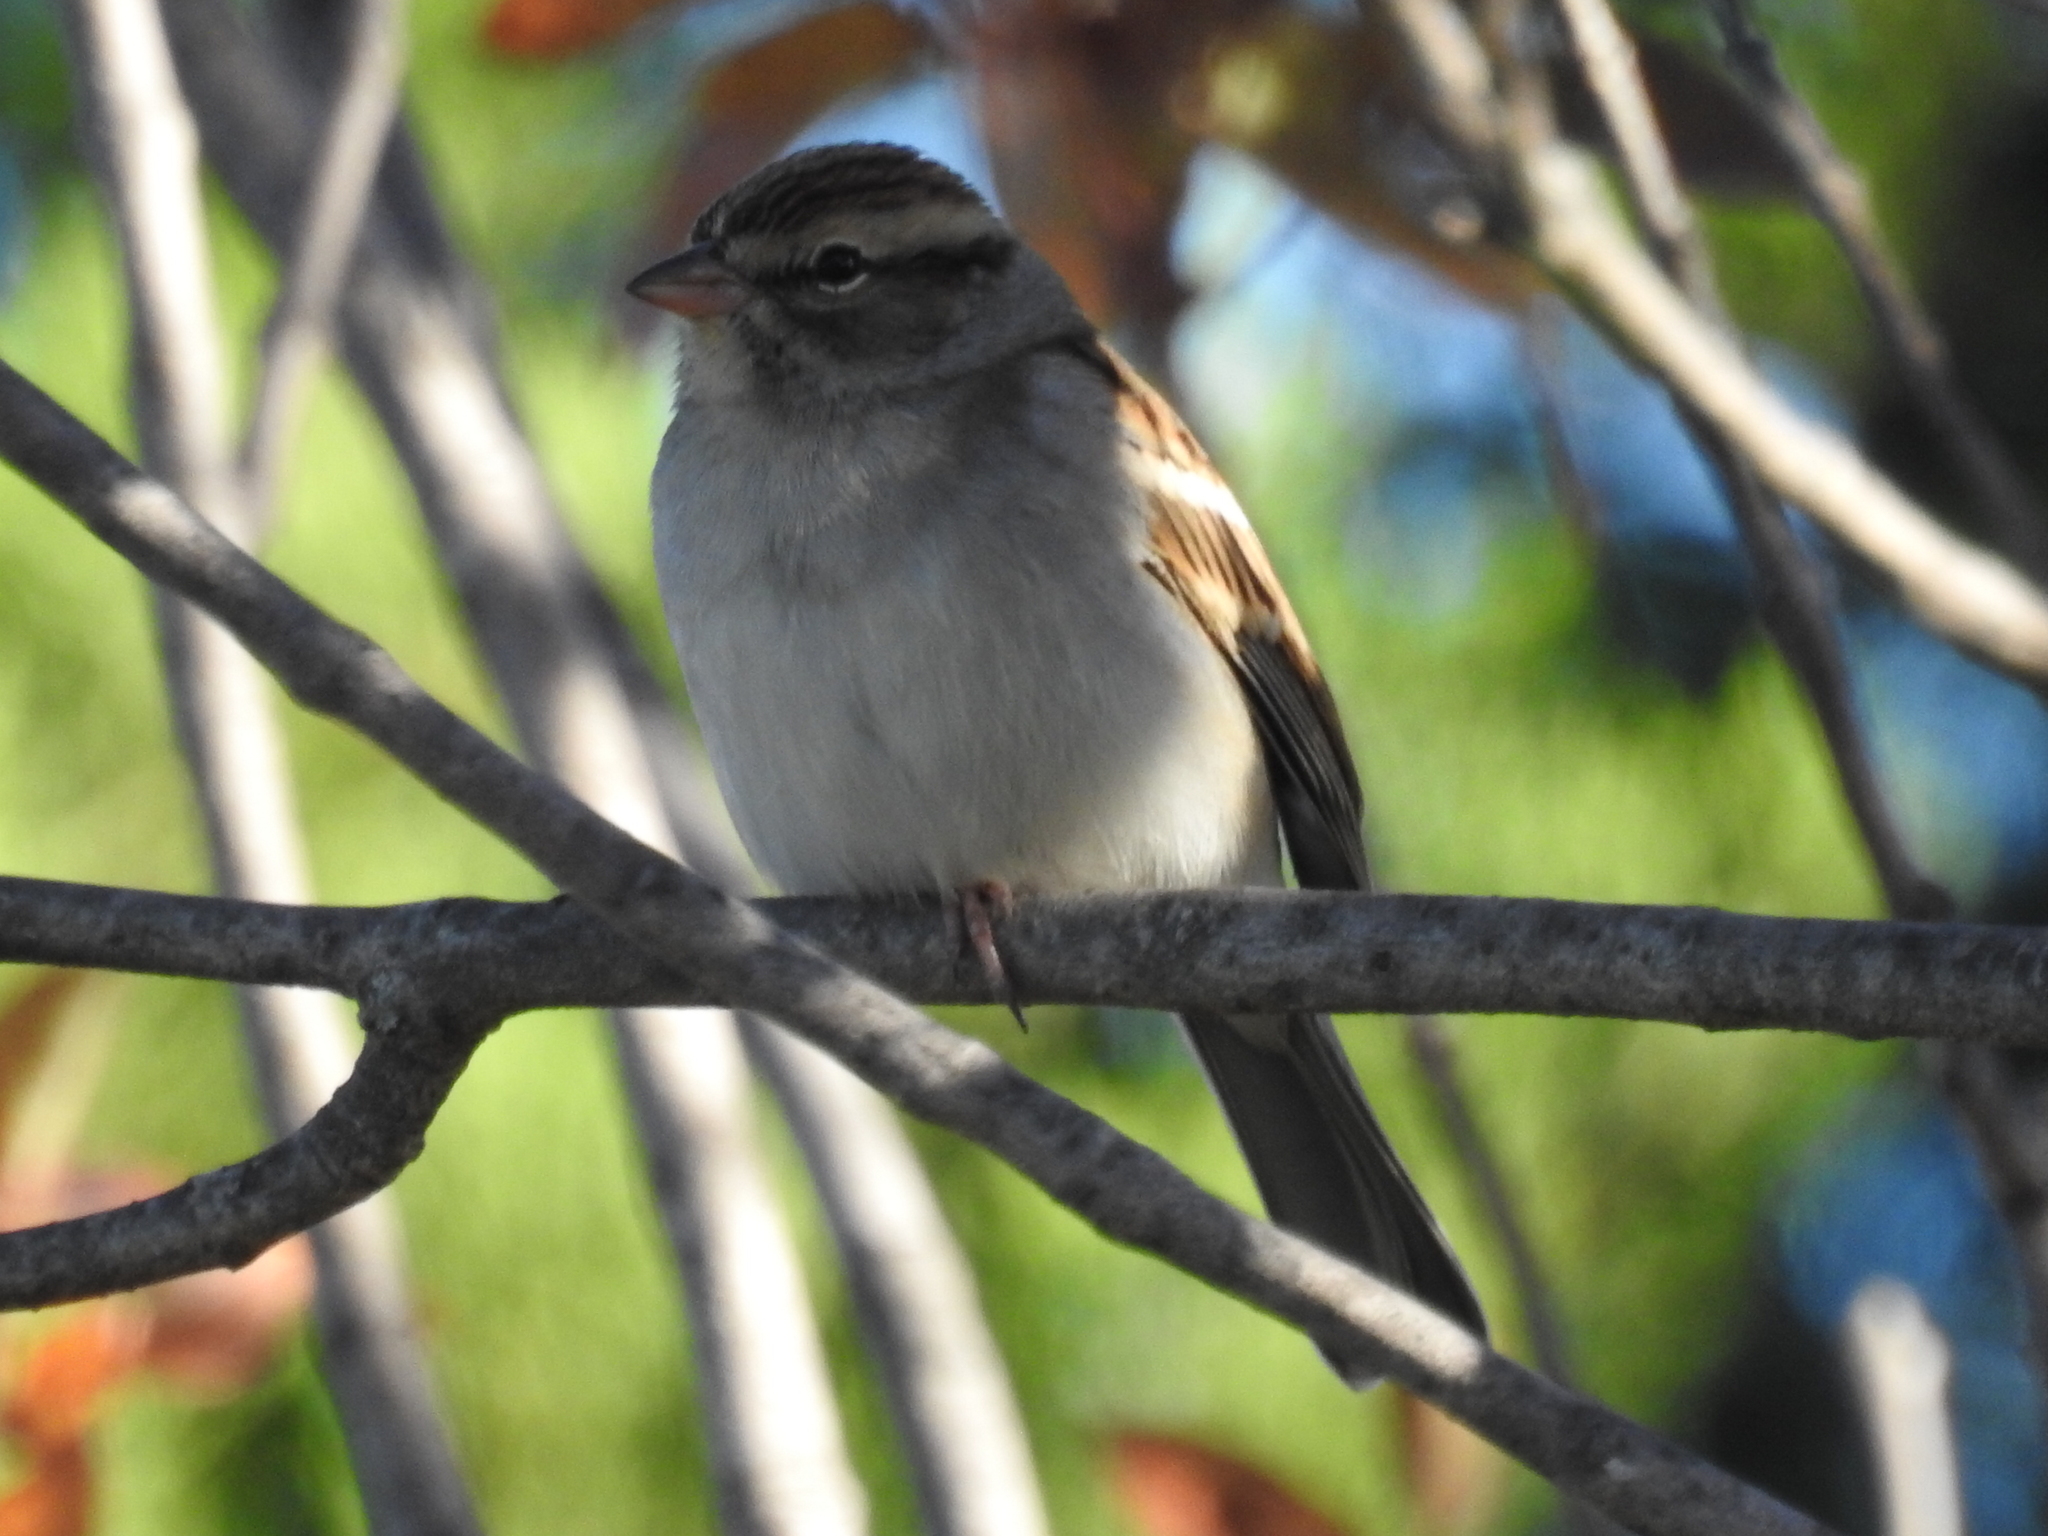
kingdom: Animalia
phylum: Chordata
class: Aves
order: Passeriformes
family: Passerellidae
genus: Spizella
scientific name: Spizella passerina
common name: Chipping sparrow
